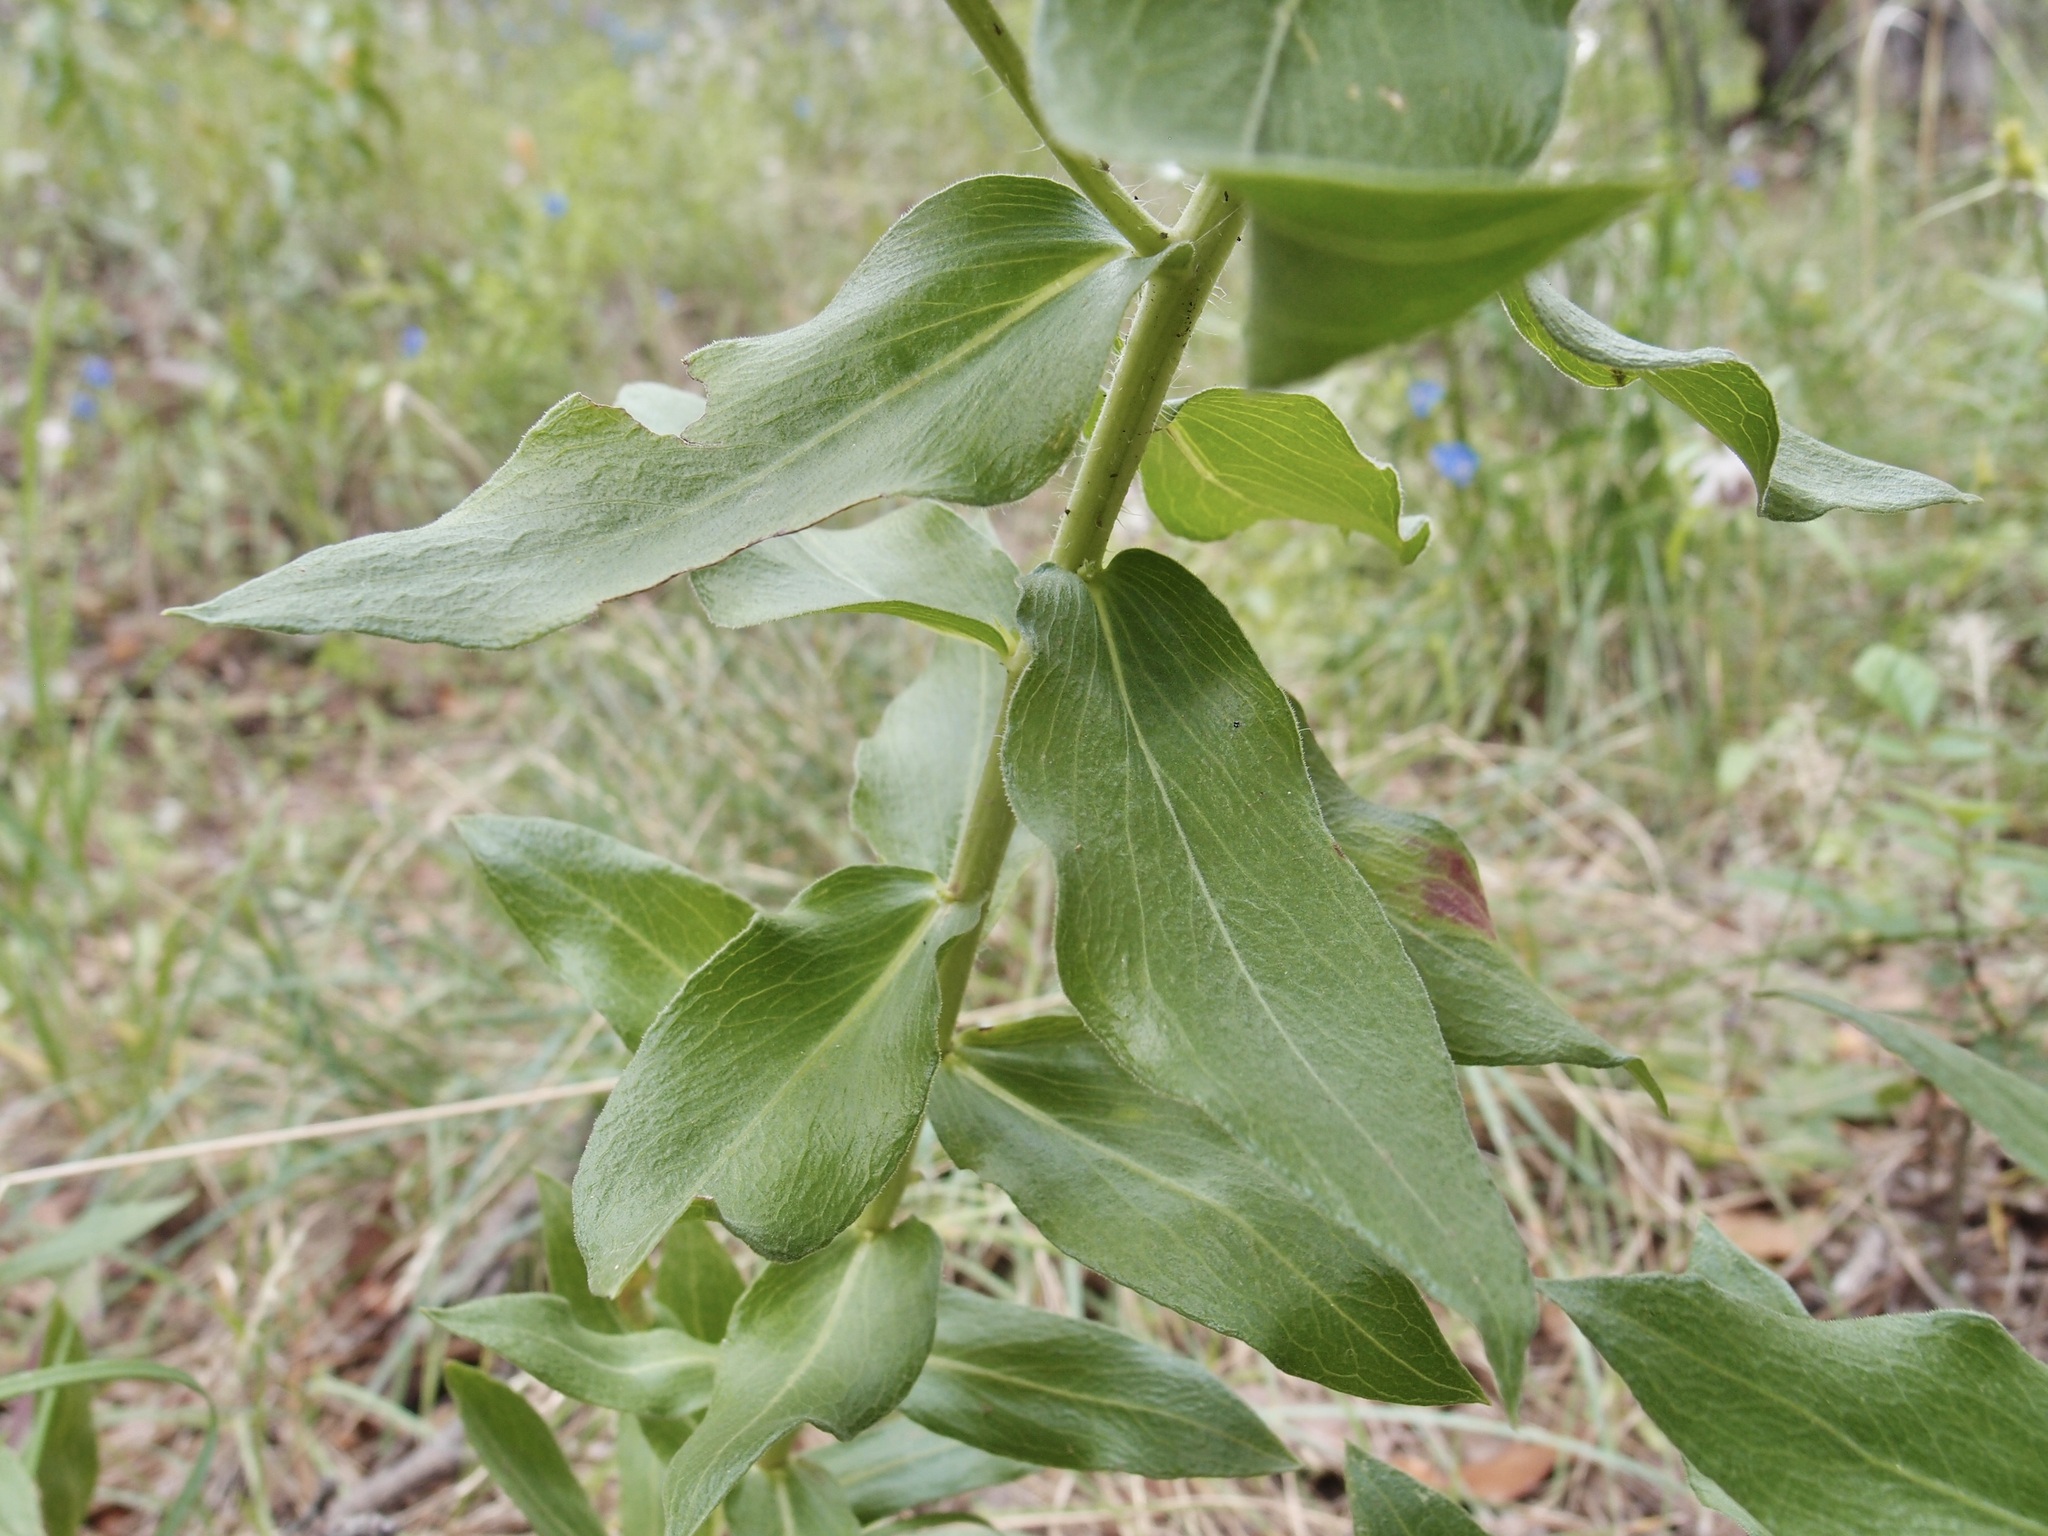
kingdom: Plantae
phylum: Tracheophyta
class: Magnoliopsida
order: Asterales
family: Asteraceae
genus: Erigeron
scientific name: Erigeron vreelandii
